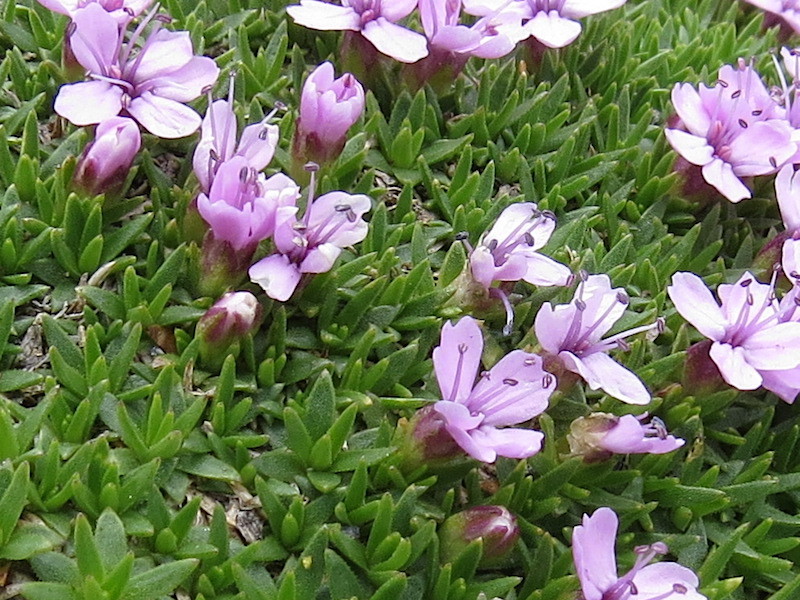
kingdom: Plantae
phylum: Tracheophyta
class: Magnoliopsida
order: Caryophyllales
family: Caryophyllaceae
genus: Silene
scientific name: Silene acaulis
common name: Moss campion
